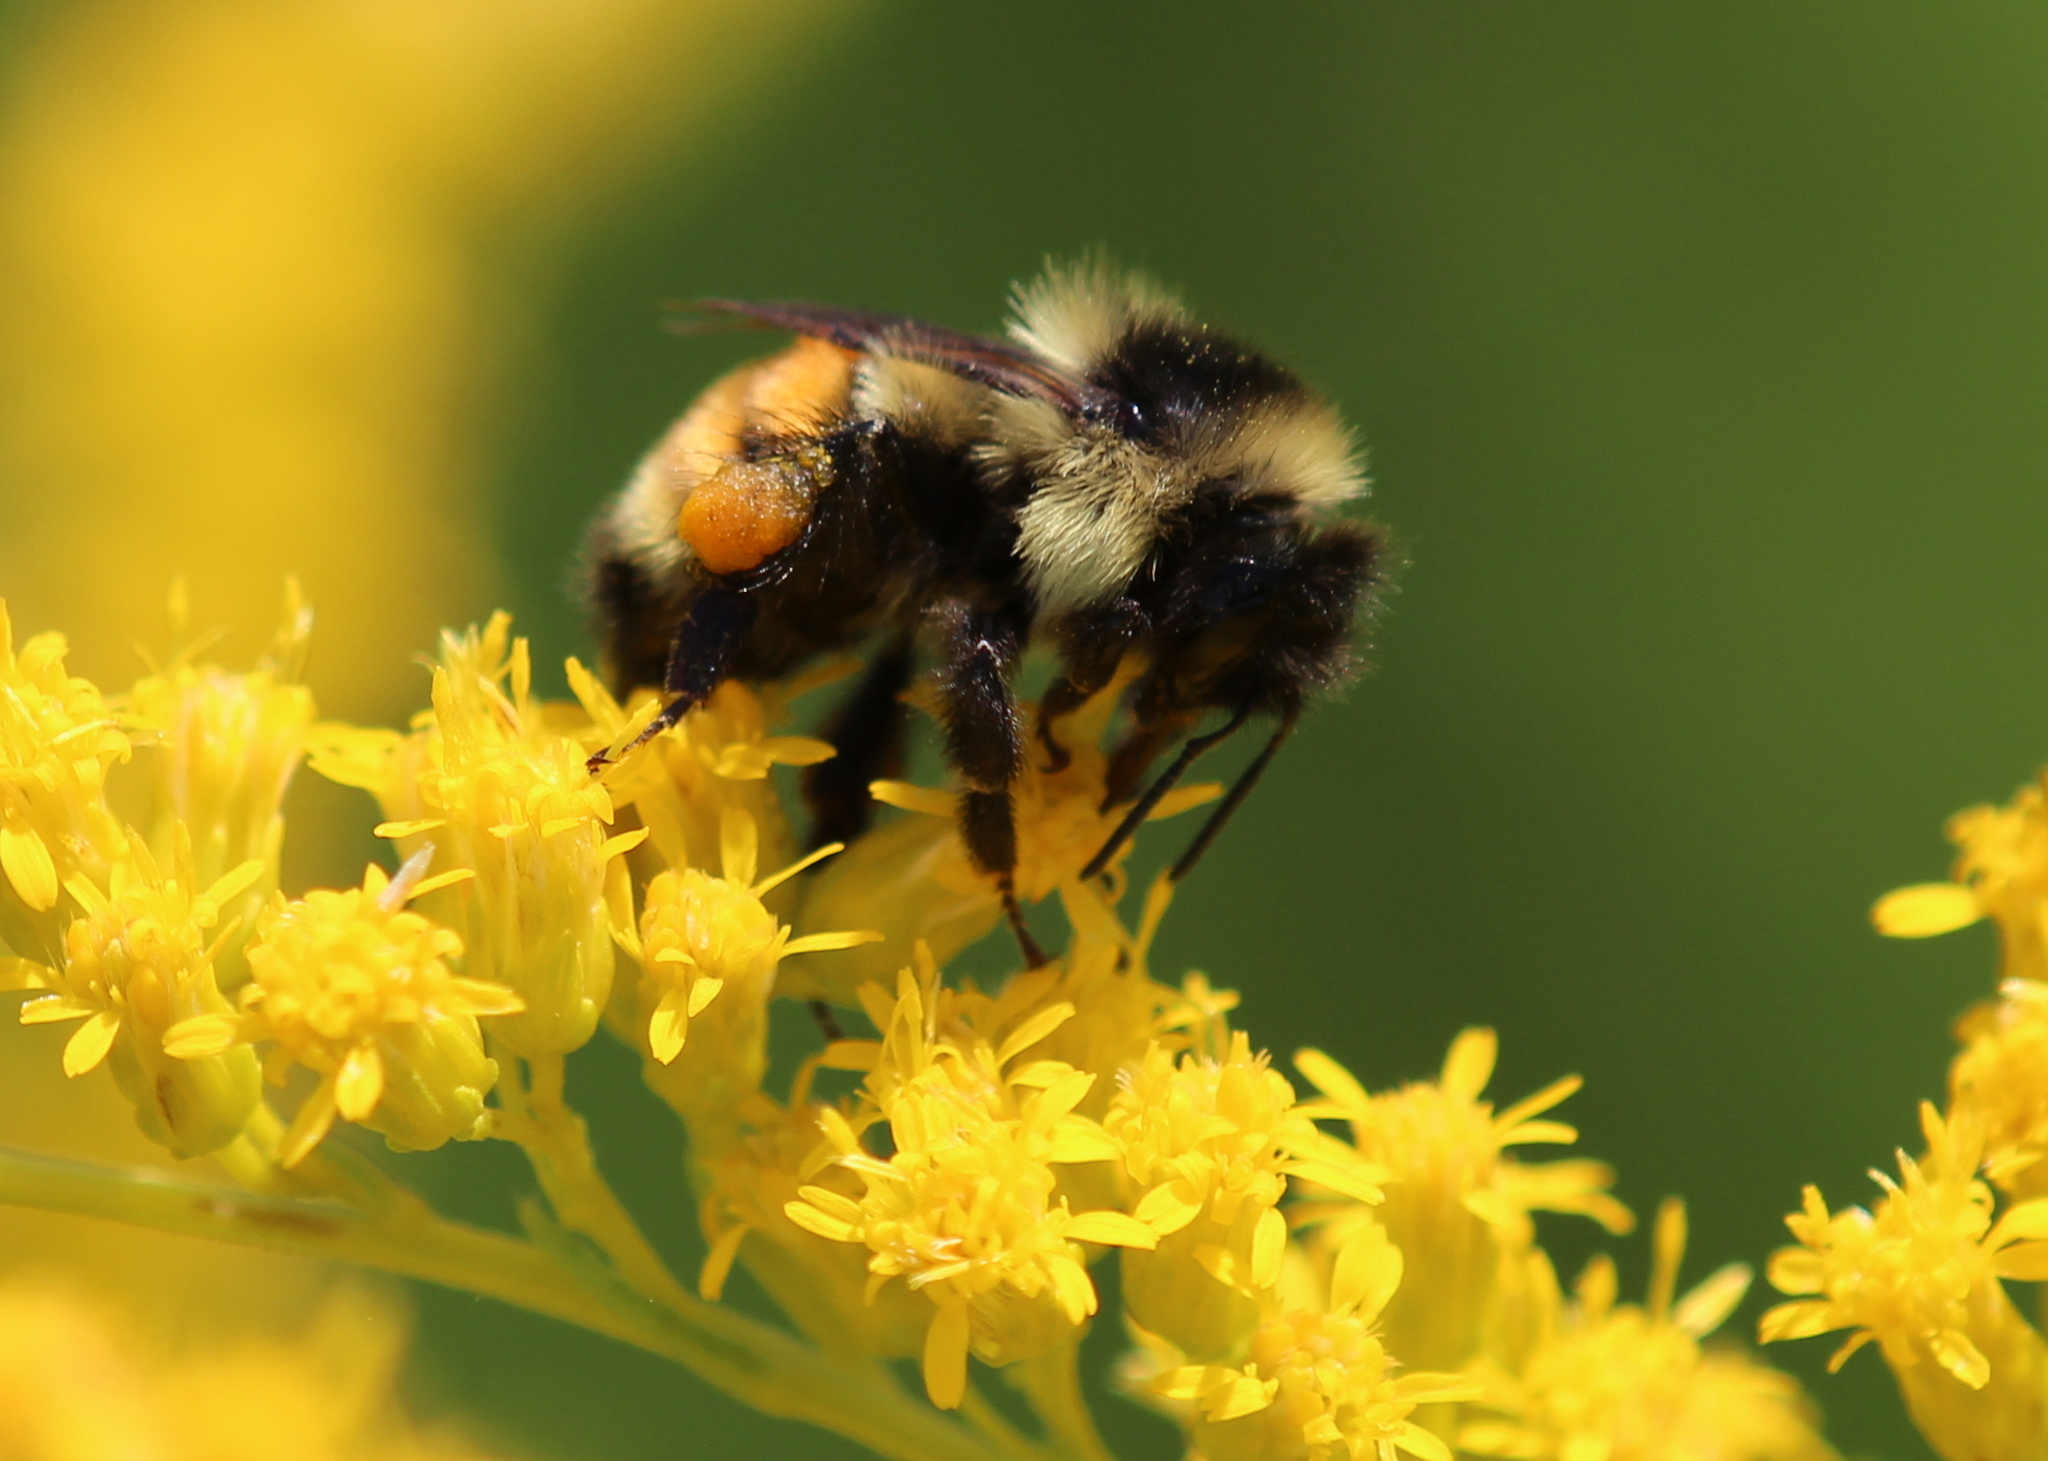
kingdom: Animalia
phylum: Arthropoda
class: Insecta
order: Hymenoptera
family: Apidae
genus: Bombus
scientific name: Bombus ternarius
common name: Tri-colored bumble bee
